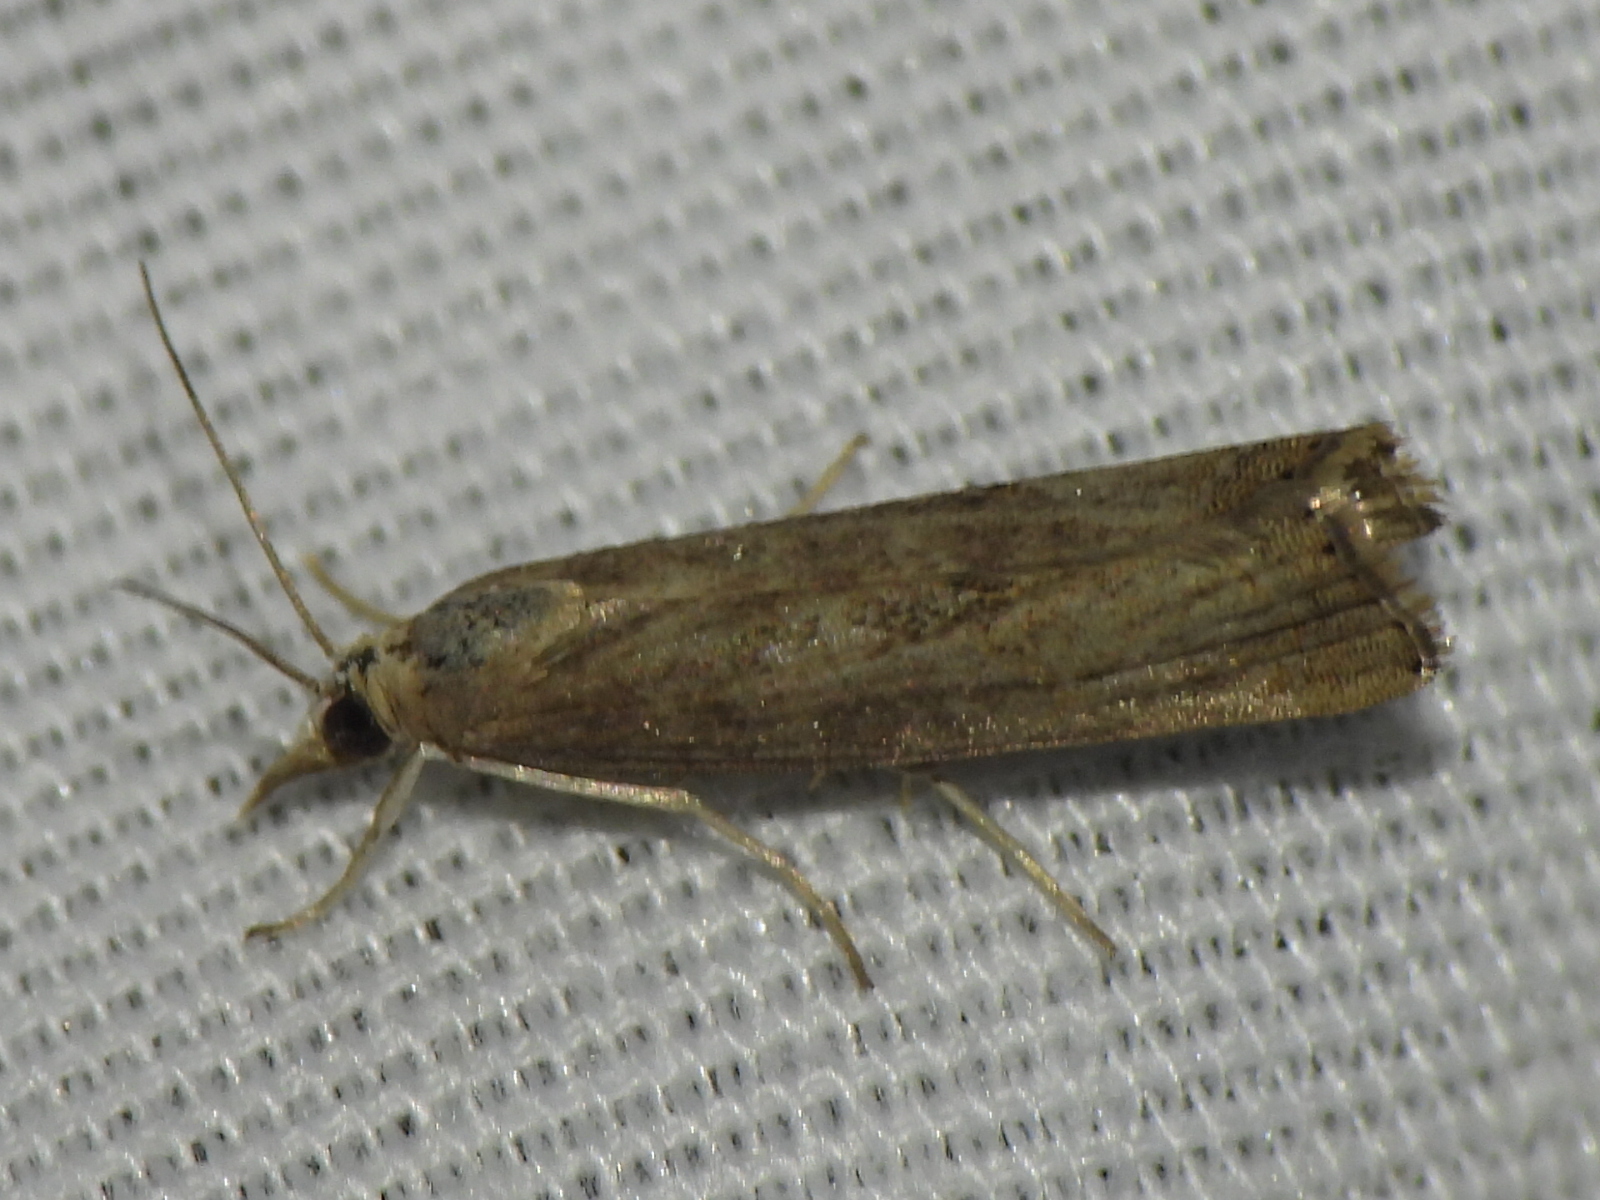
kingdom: Animalia
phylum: Arthropoda
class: Insecta
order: Lepidoptera
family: Crambidae
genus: Parapediasia
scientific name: Parapediasia teterellus
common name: Bluegrass webworm moth
